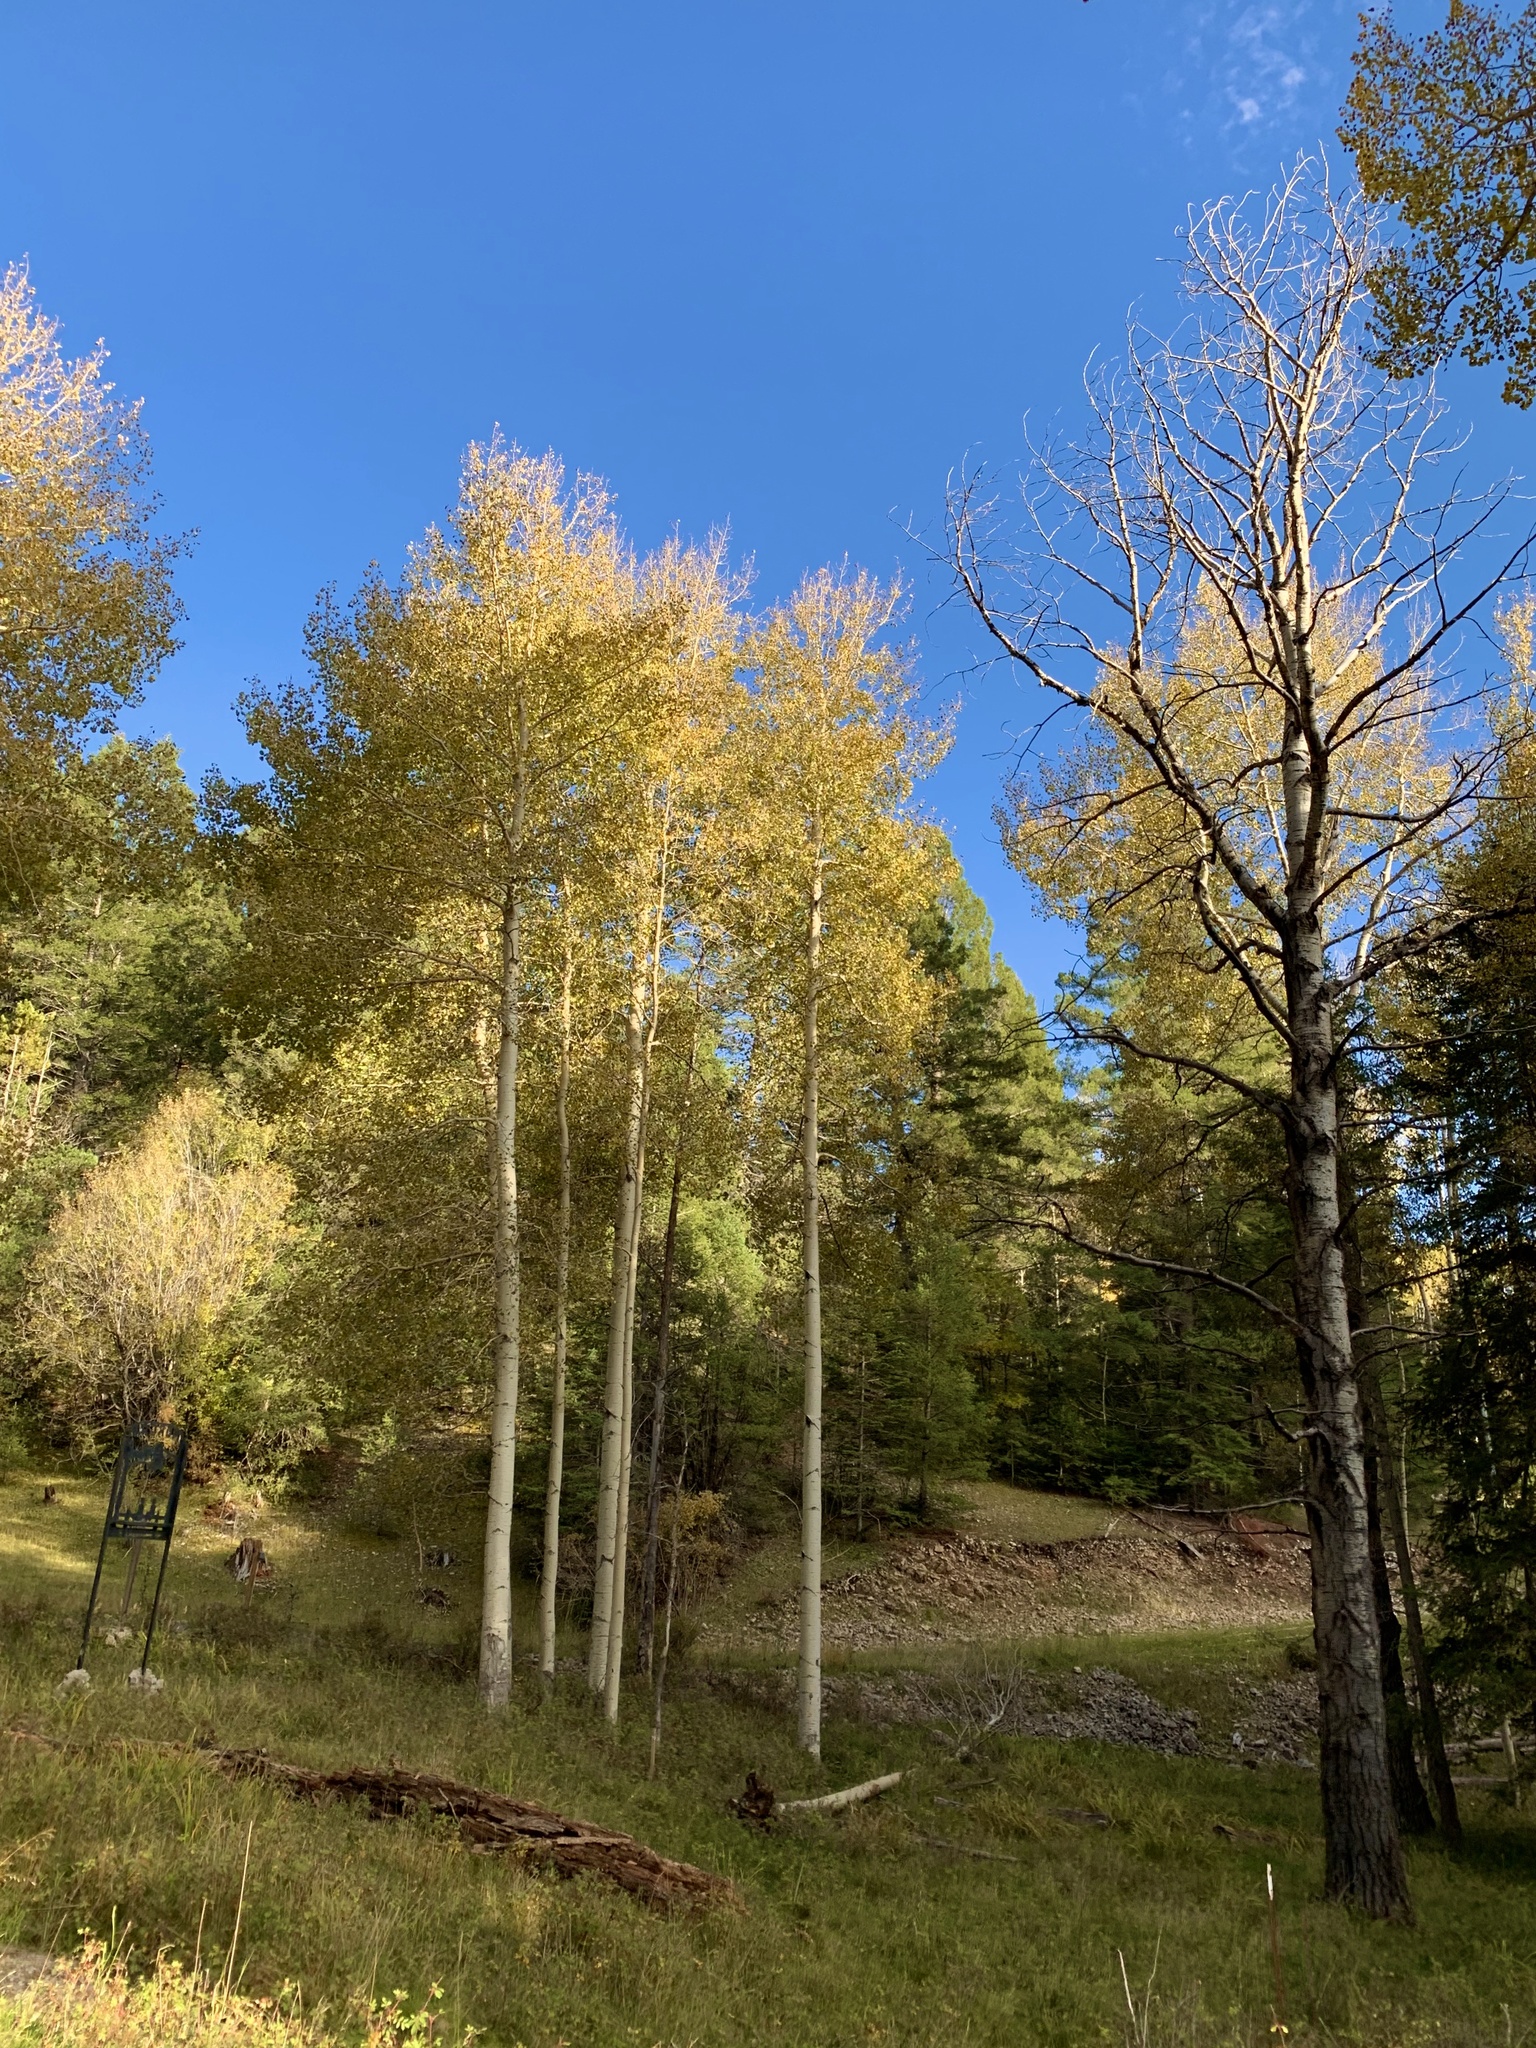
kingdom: Plantae
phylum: Tracheophyta
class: Magnoliopsida
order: Malpighiales
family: Salicaceae
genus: Populus
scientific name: Populus tremuloides
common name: Quaking aspen
